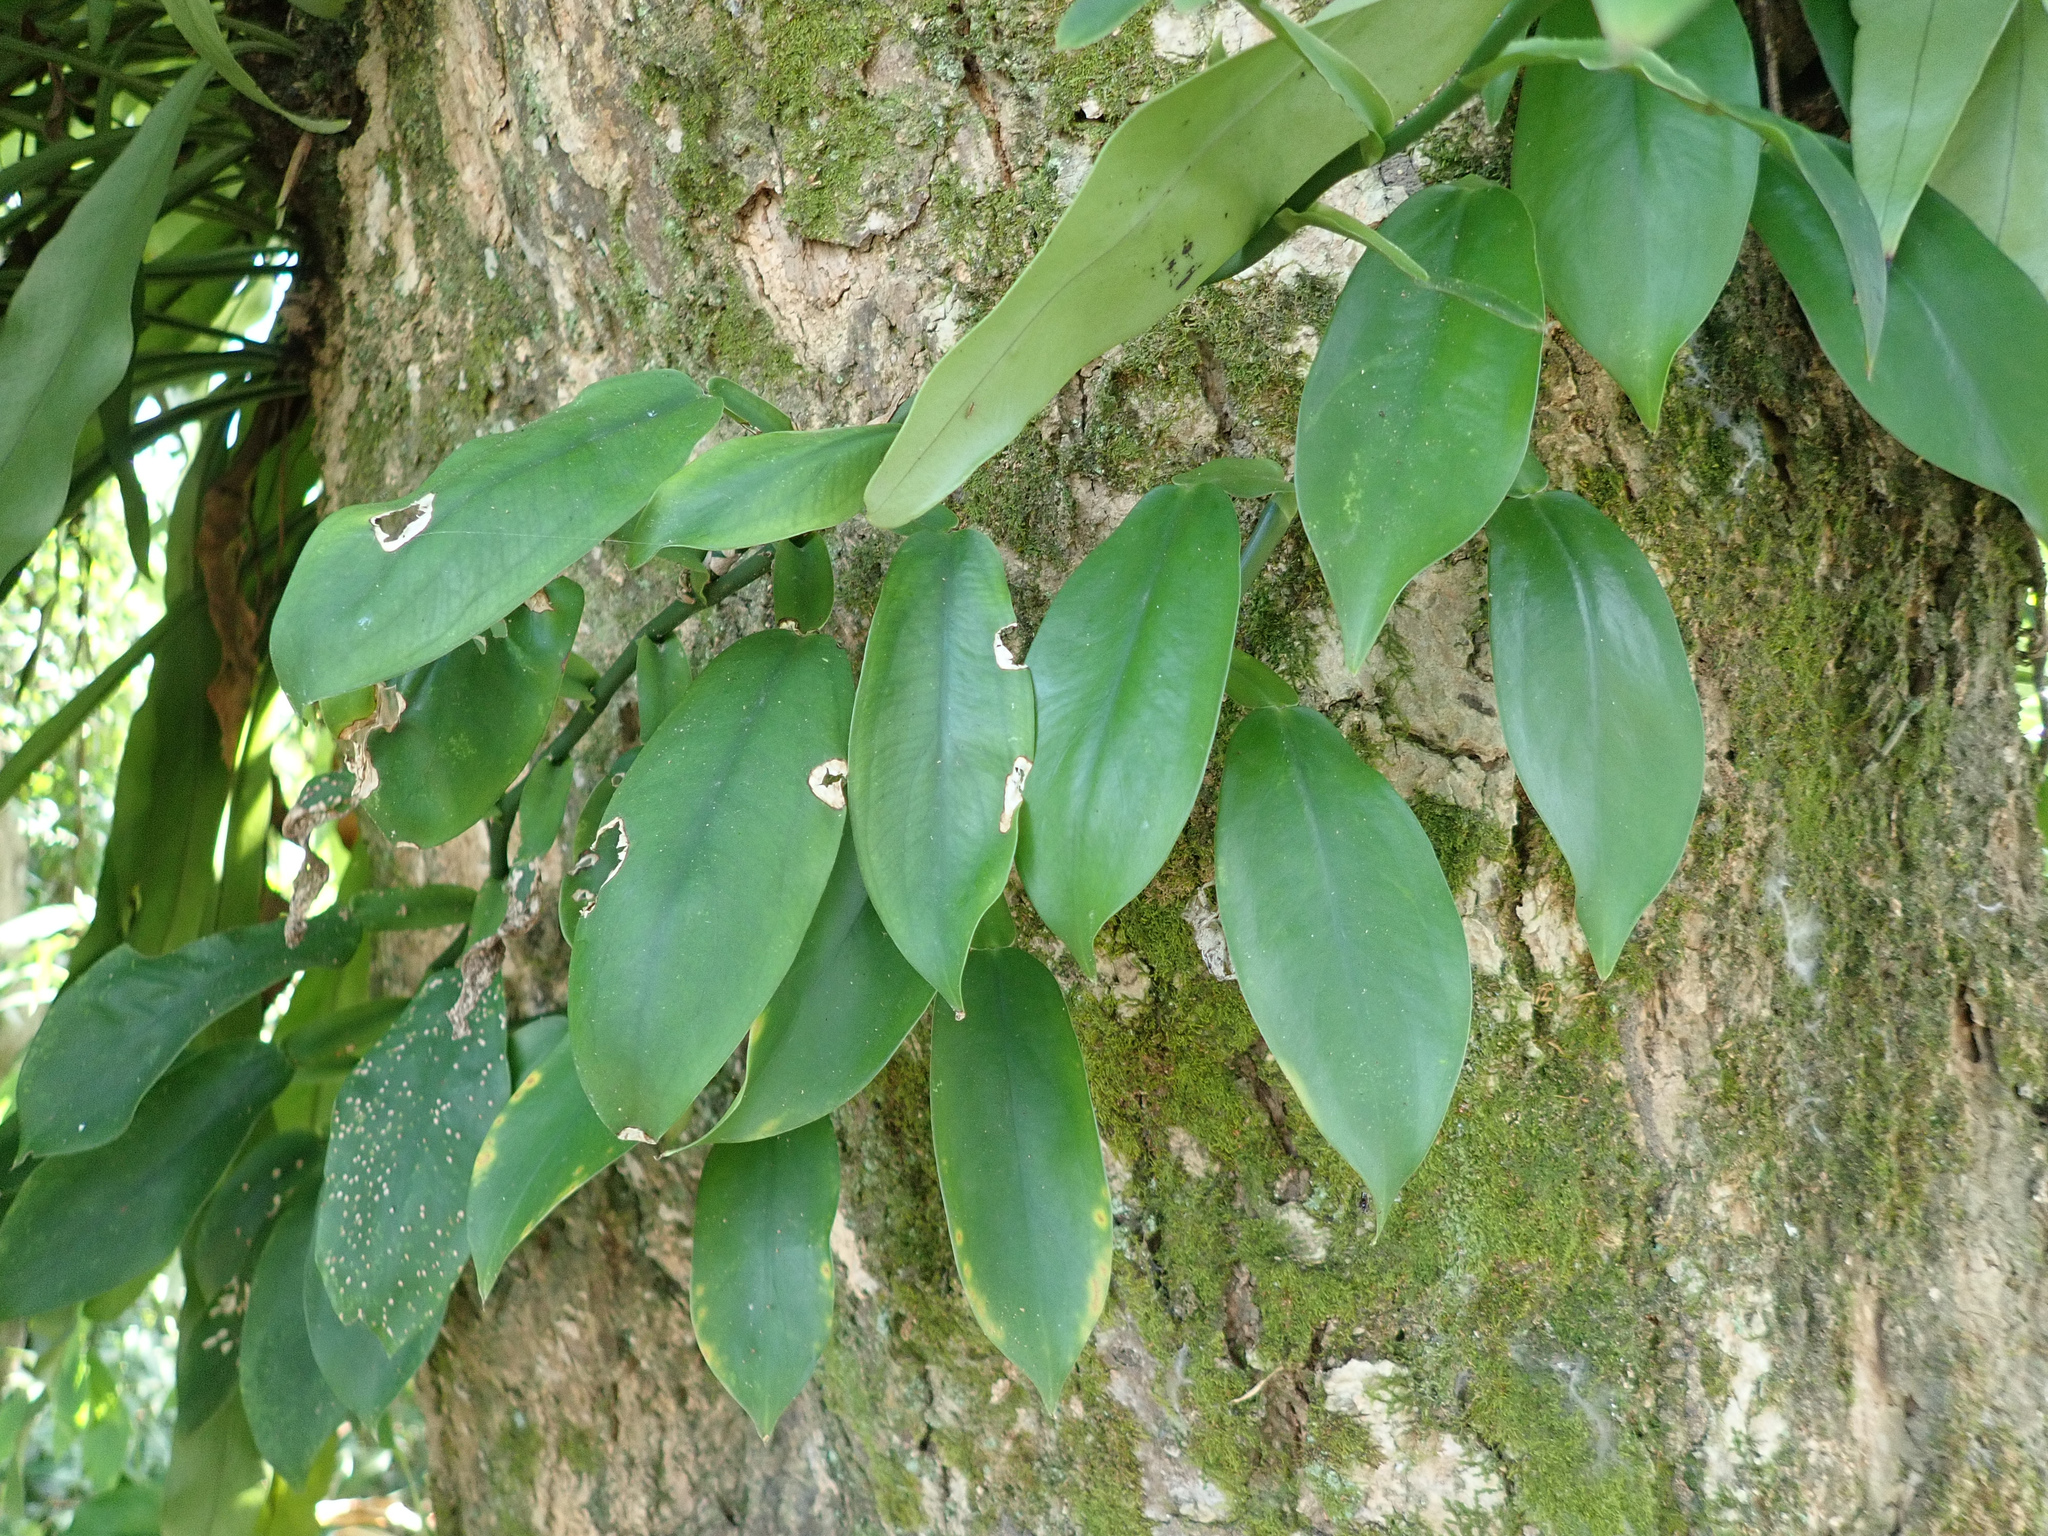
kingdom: Plantae
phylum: Tracheophyta
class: Liliopsida
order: Alismatales
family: Araceae
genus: Pothos
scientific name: Pothos chinensis
